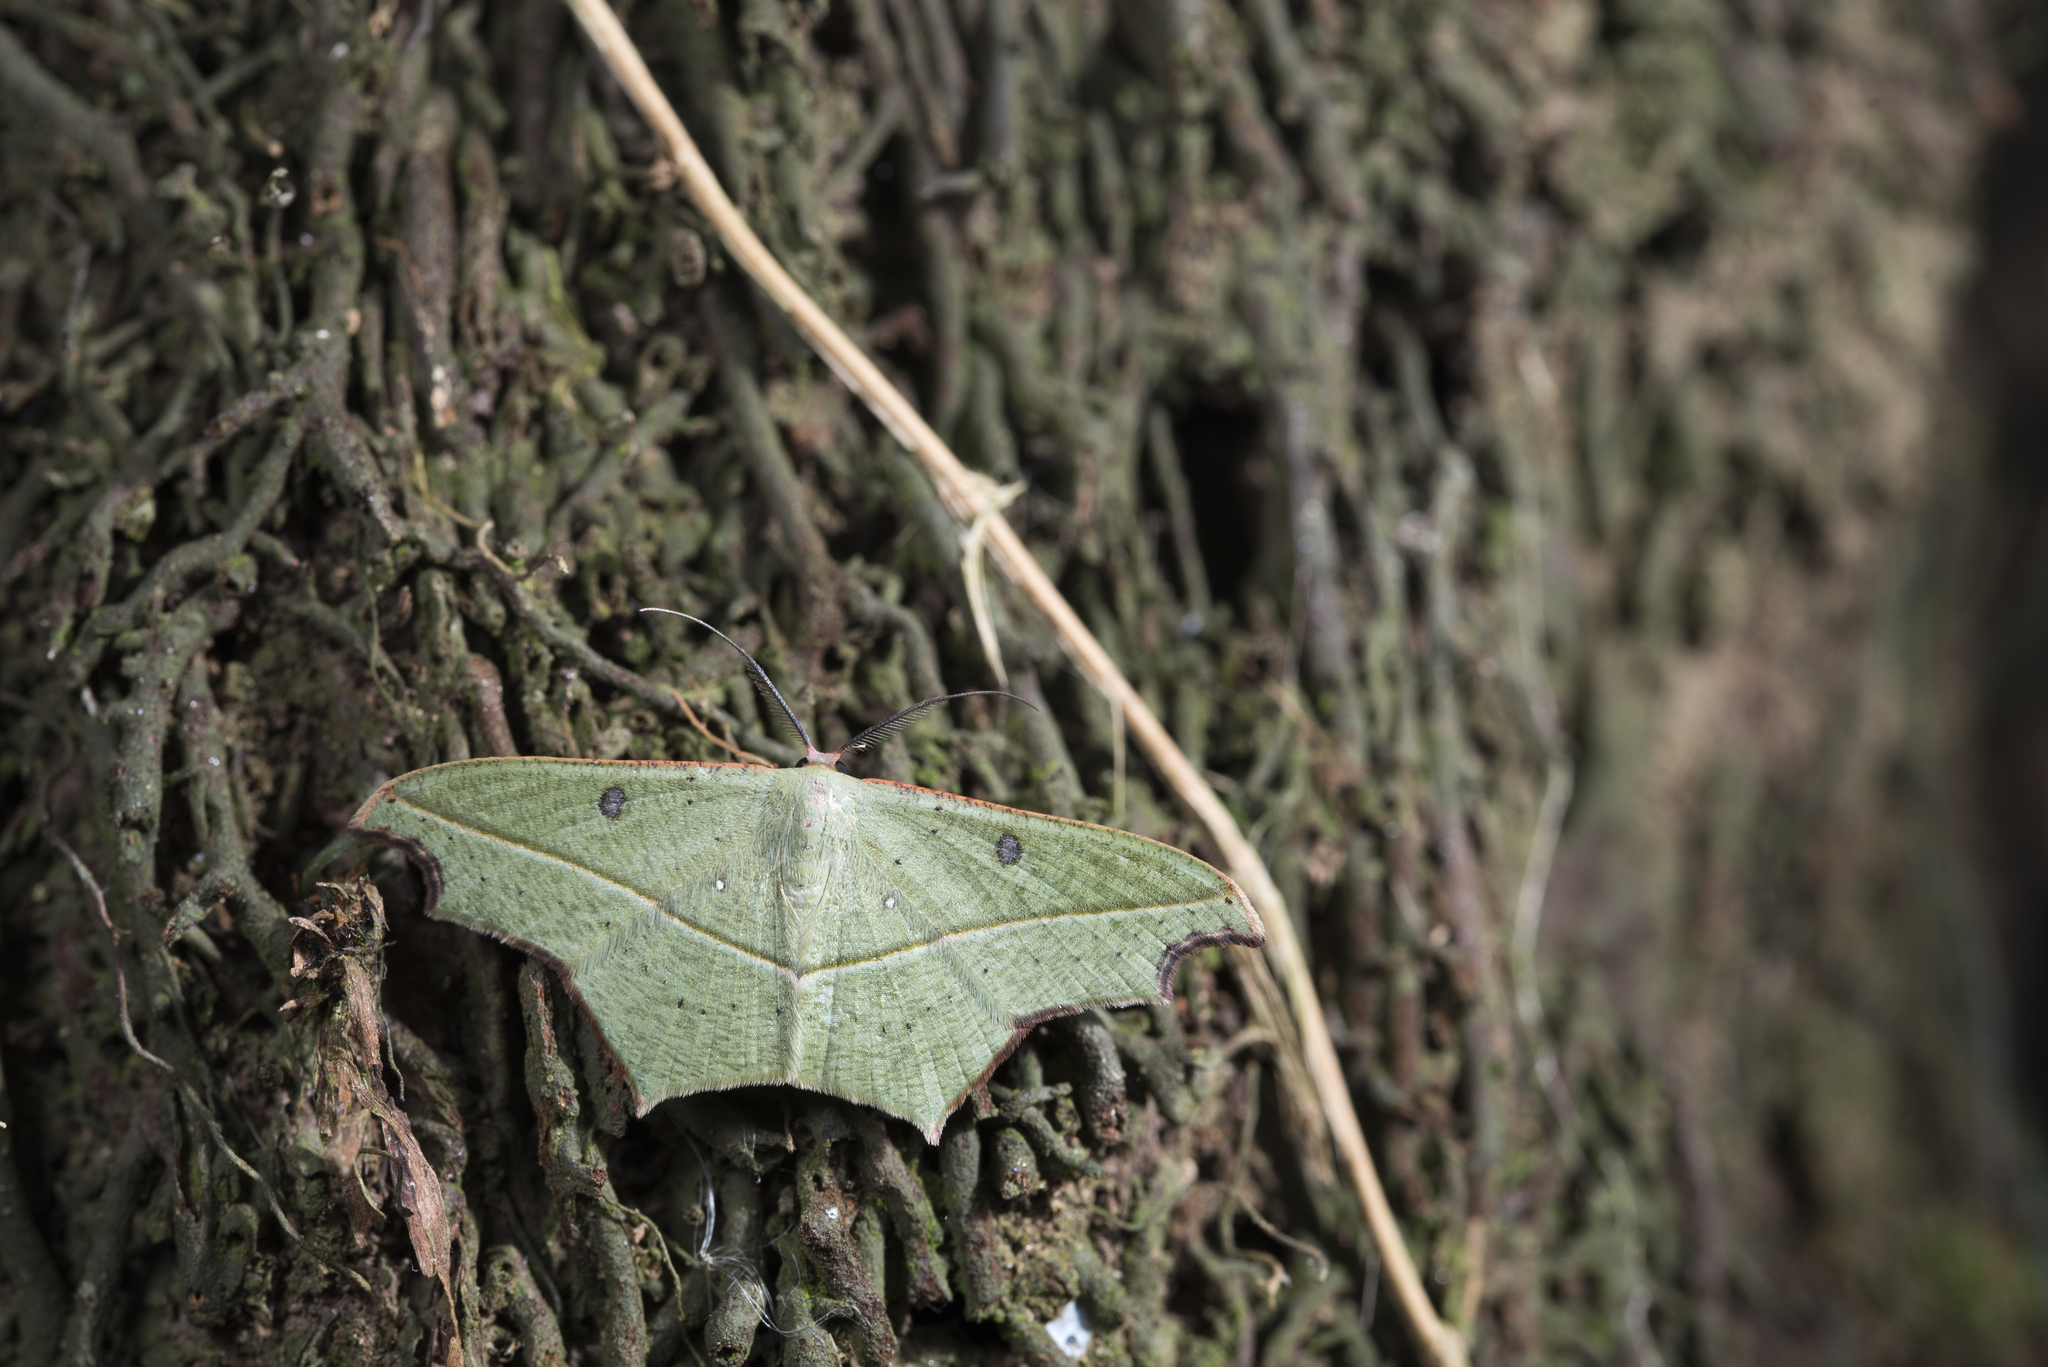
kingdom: Animalia
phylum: Arthropoda
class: Insecta
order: Lepidoptera
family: Geometridae
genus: Traminda
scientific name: Traminda aventiaria
